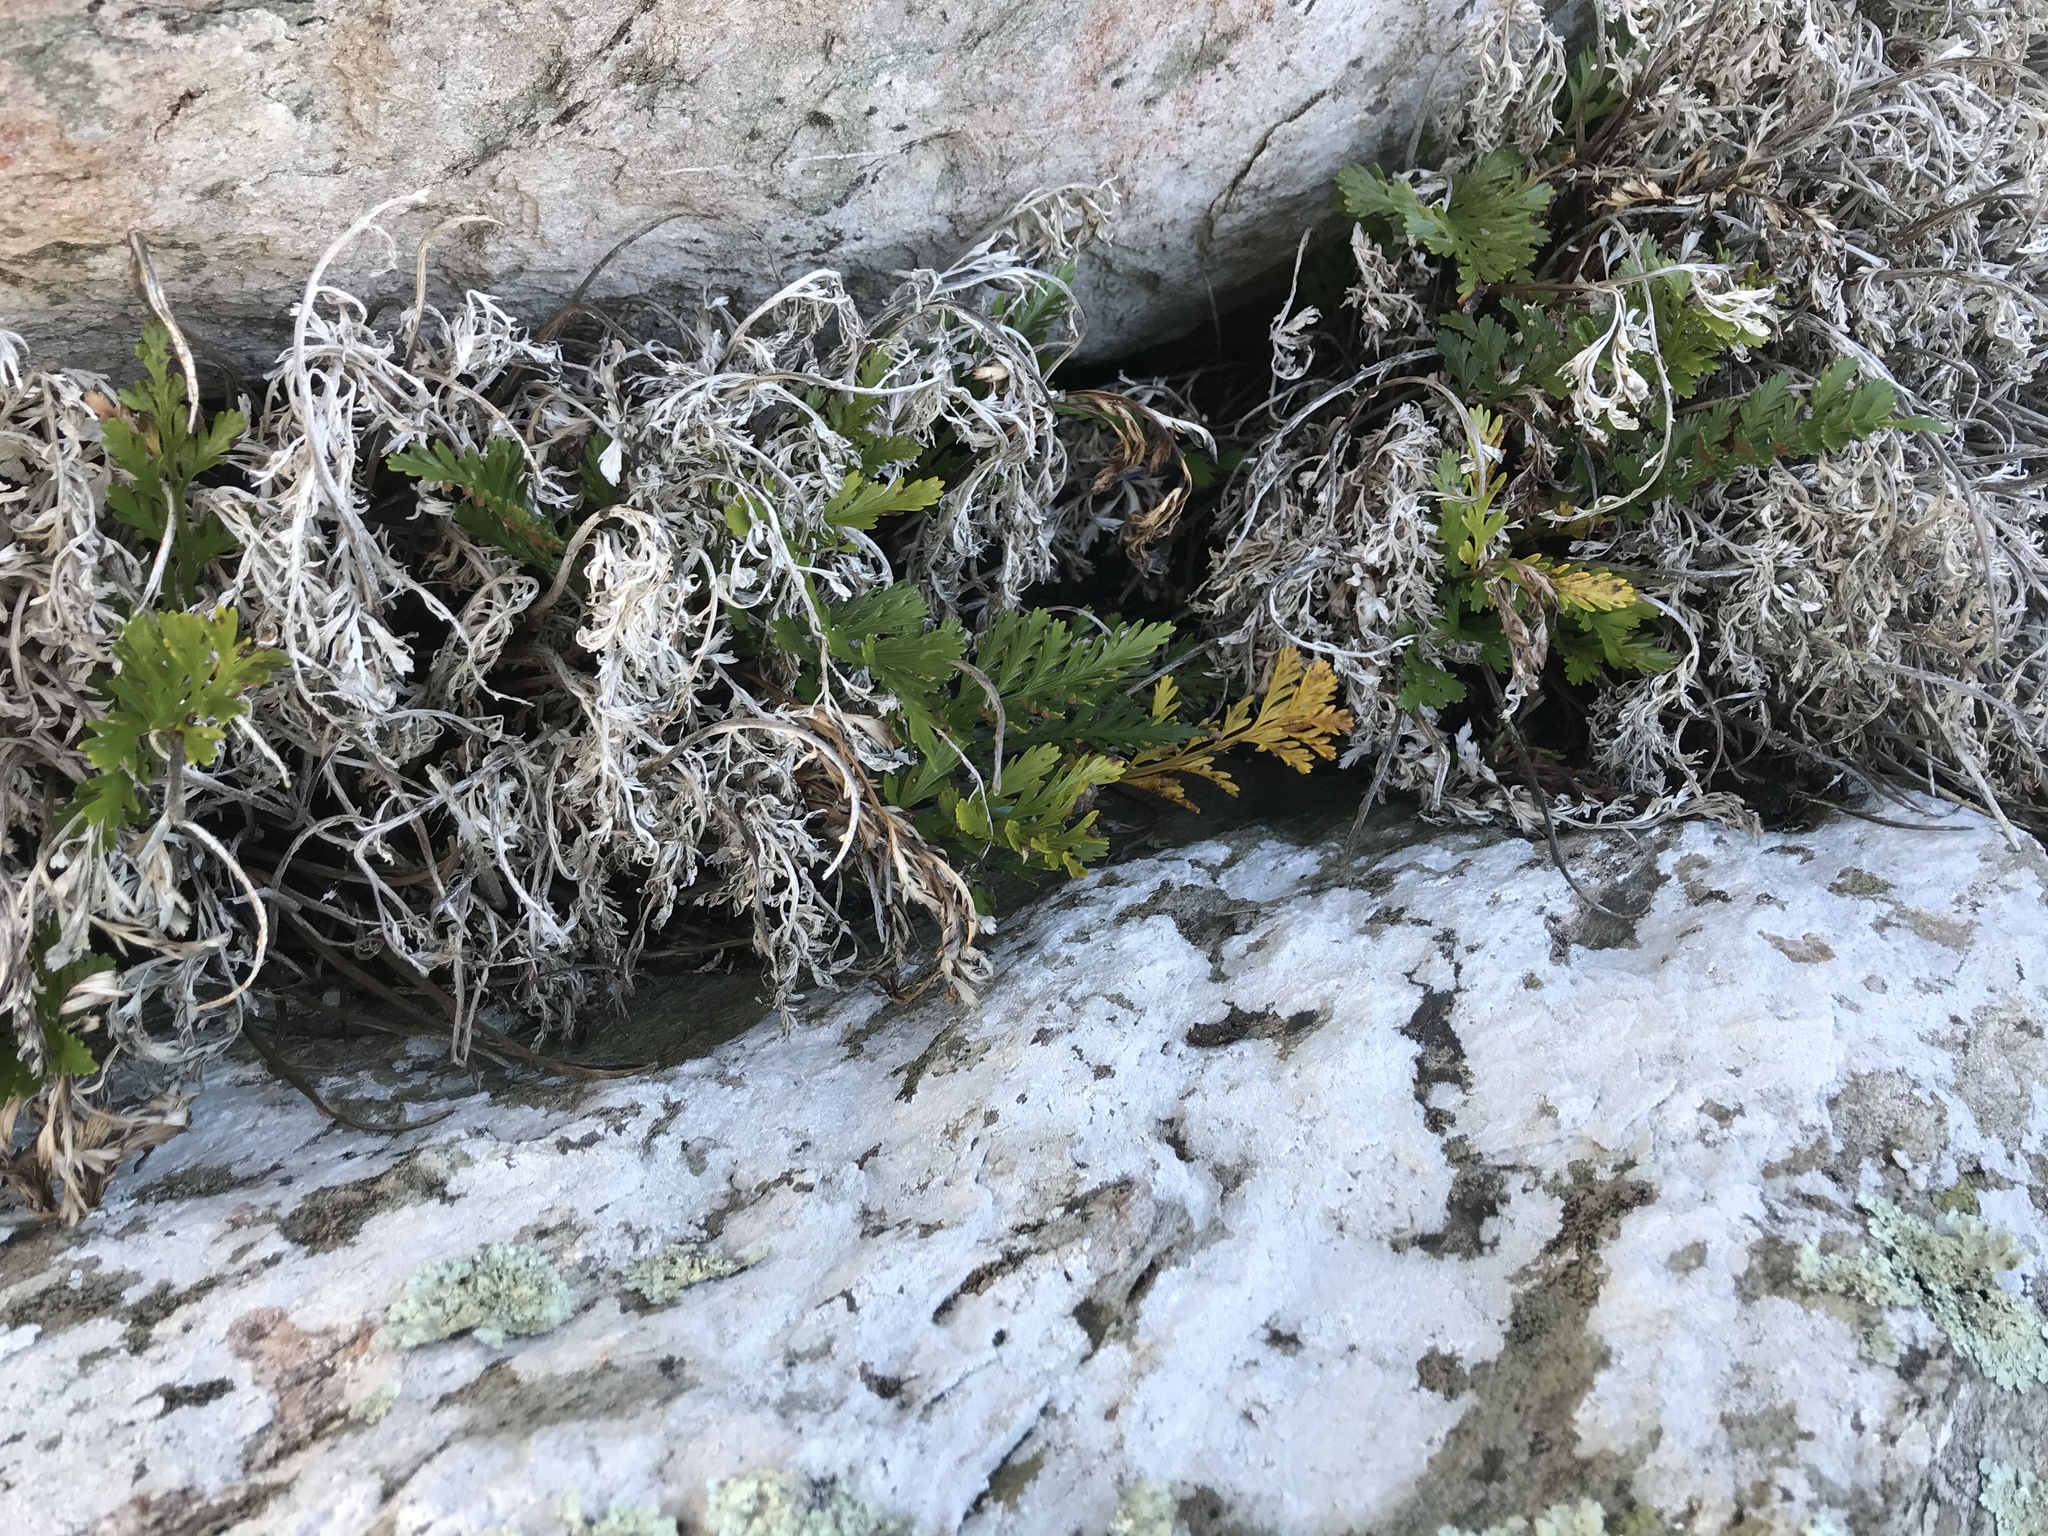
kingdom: Plantae
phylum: Tracheophyta
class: Polypodiopsida
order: Polypodiales
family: Aspleniaceae
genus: Asplenium
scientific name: Asplenium chathamense
